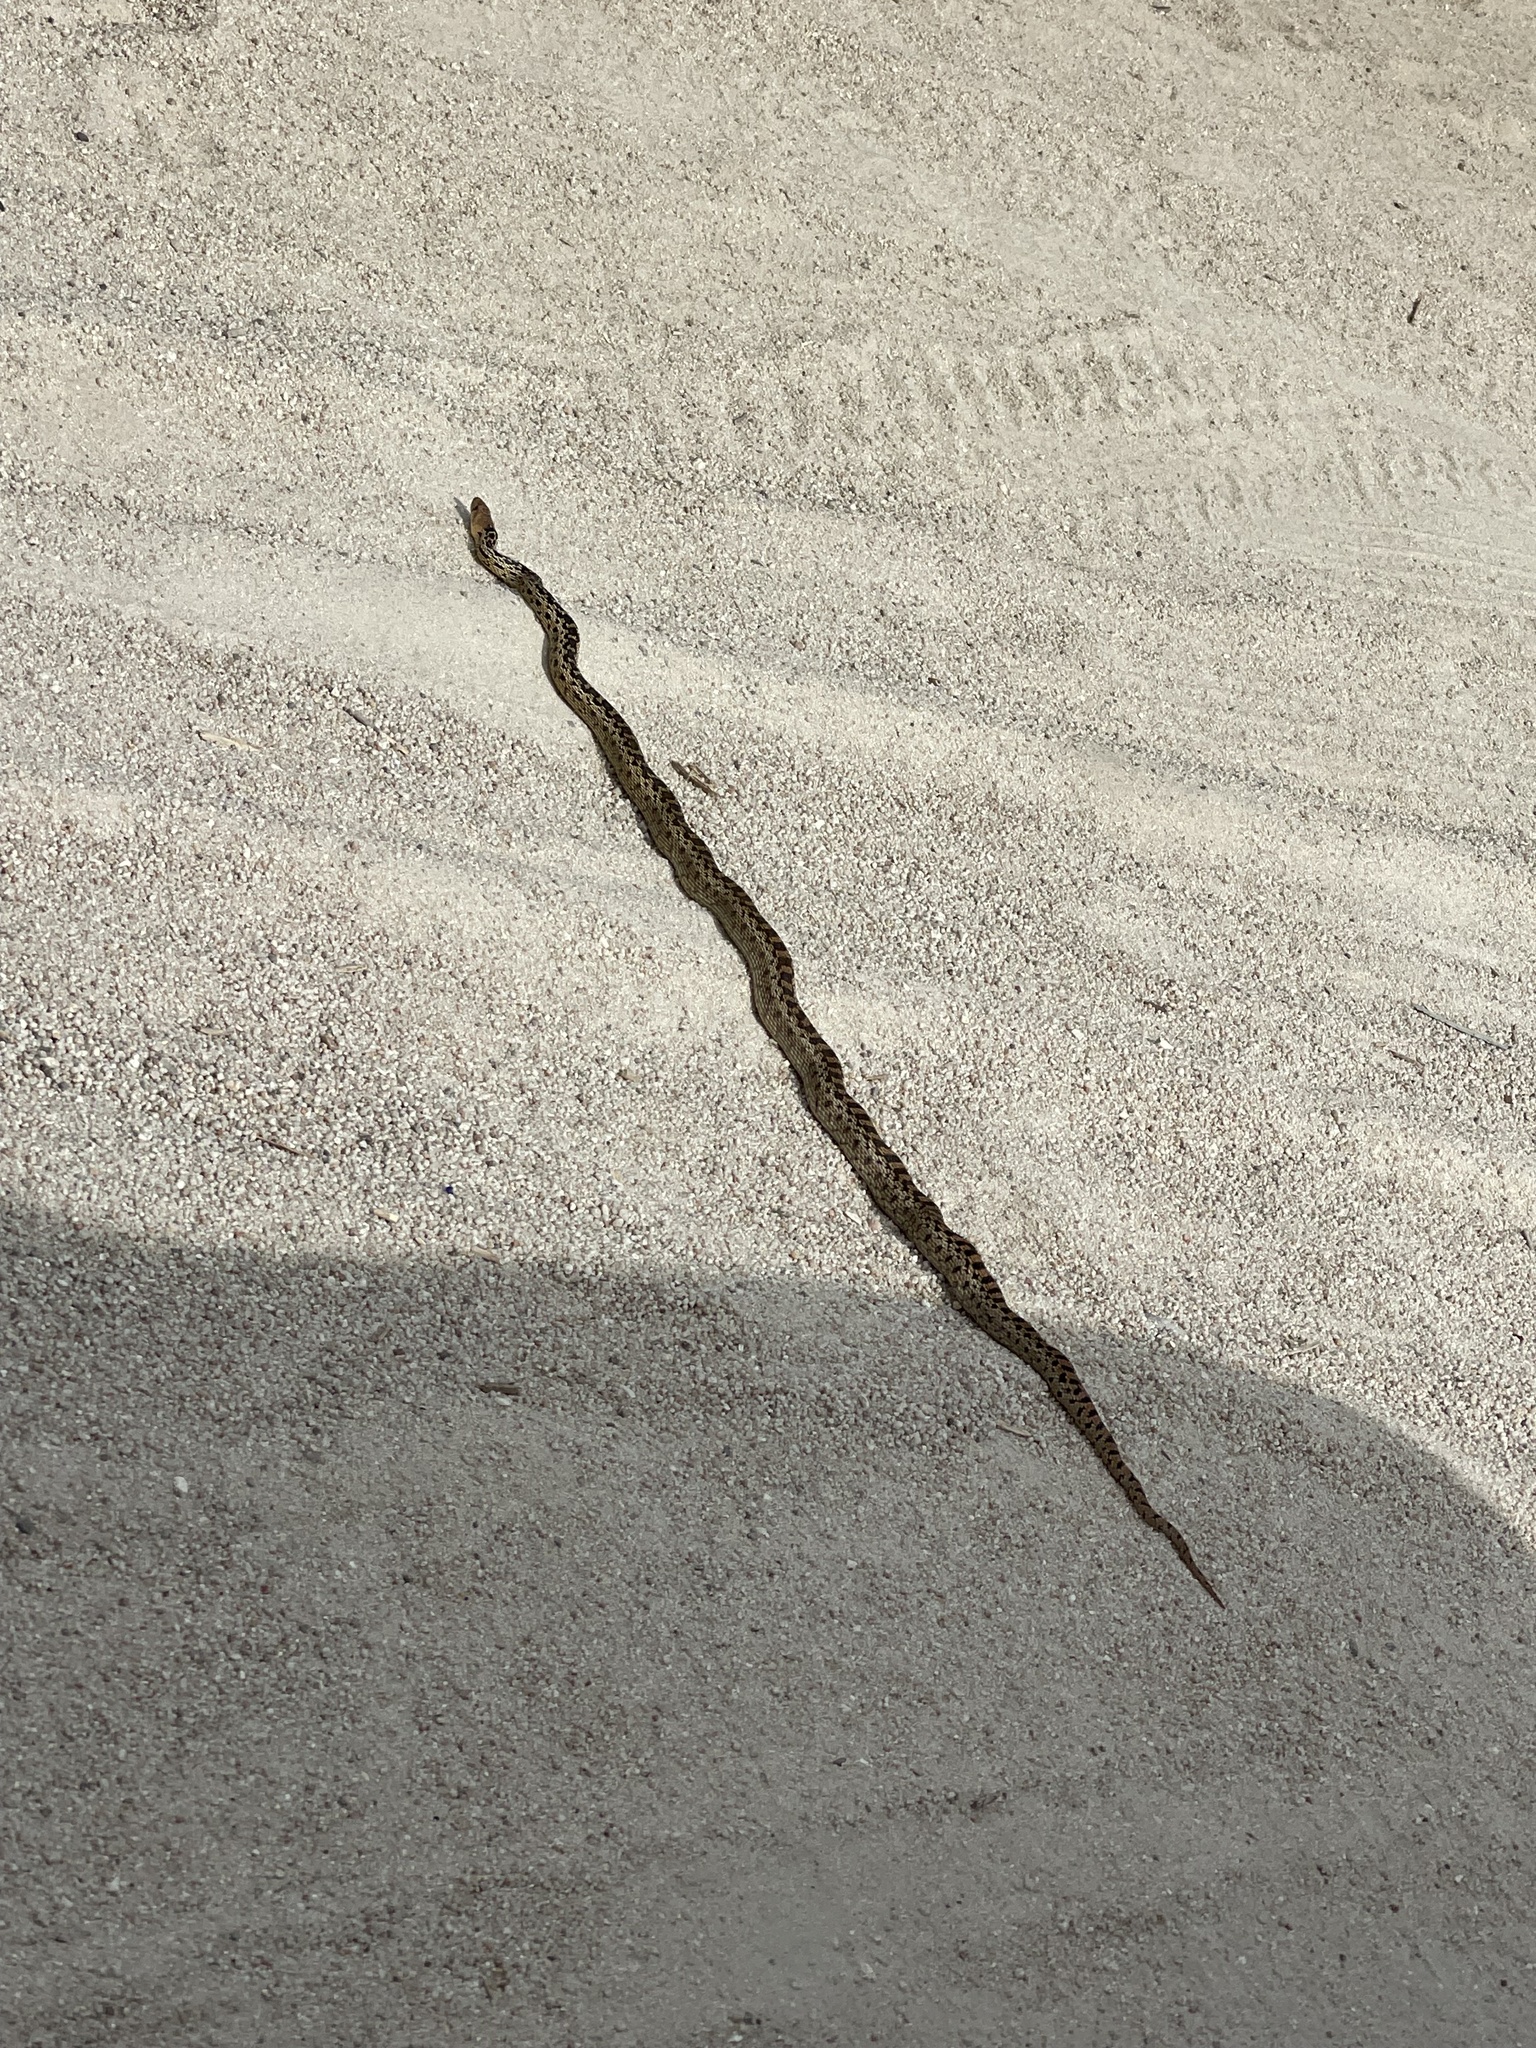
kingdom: Animalia
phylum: Chordata
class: Squamata
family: Colubridae
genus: Pituophis
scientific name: Pituophis catenifer
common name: Gopher snake
